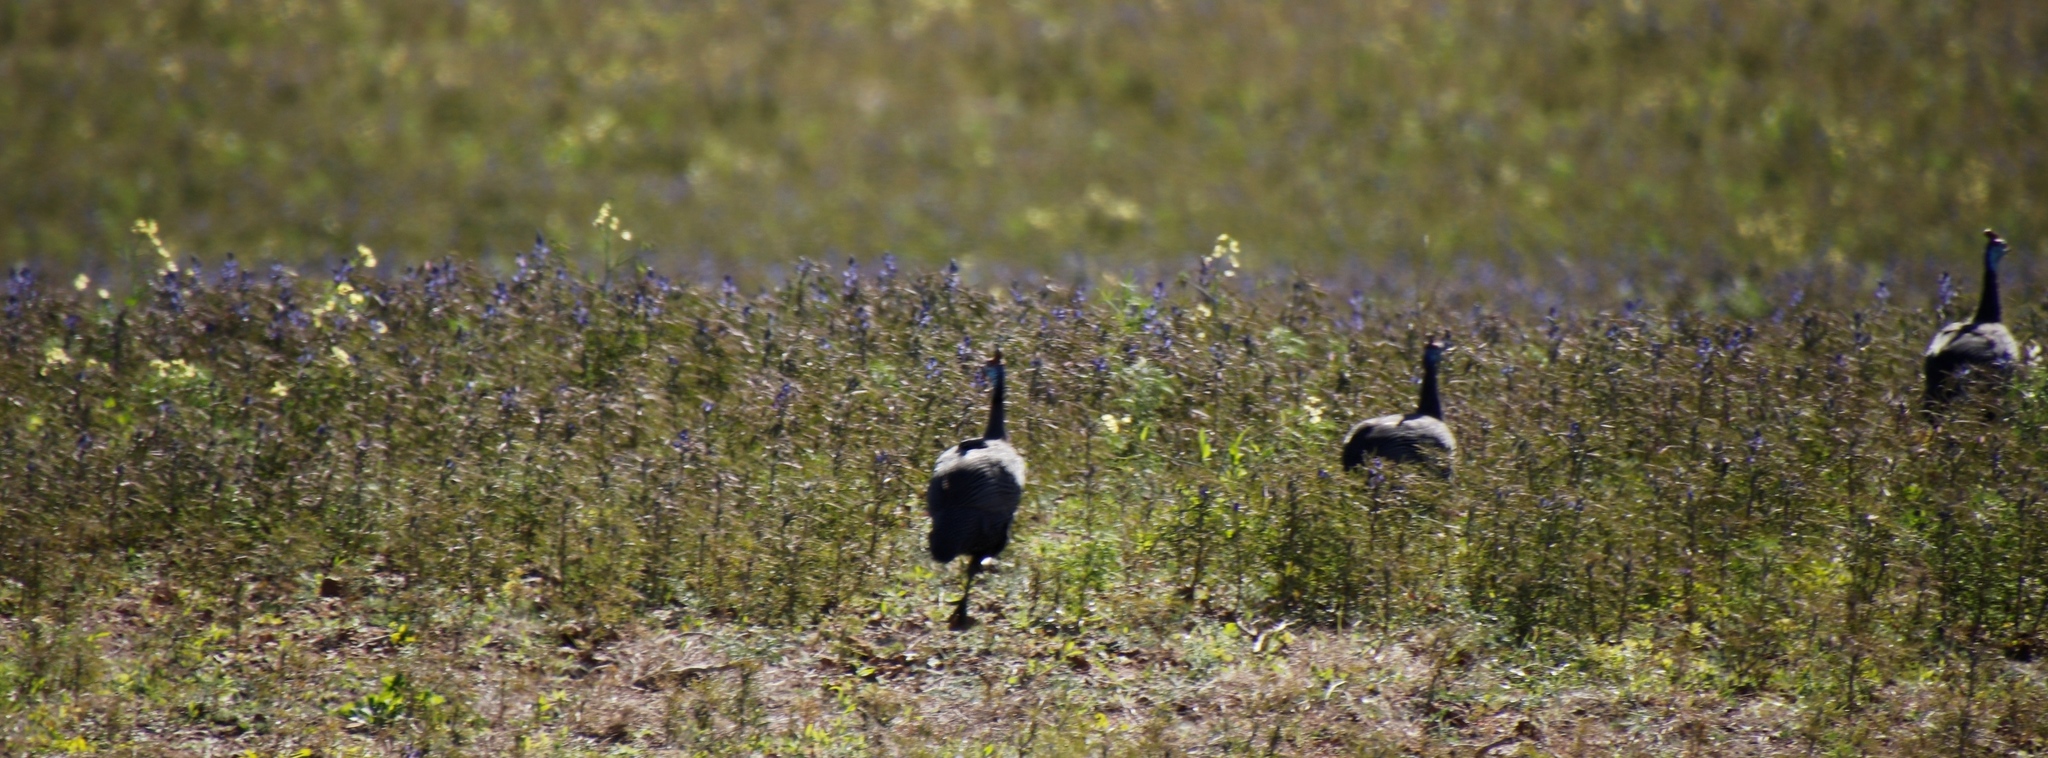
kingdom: Animalia
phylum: Chordata
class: Aves
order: Galliformes
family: Numididae
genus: Numida
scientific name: Numida meleagris
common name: Helmeted guineafowl
